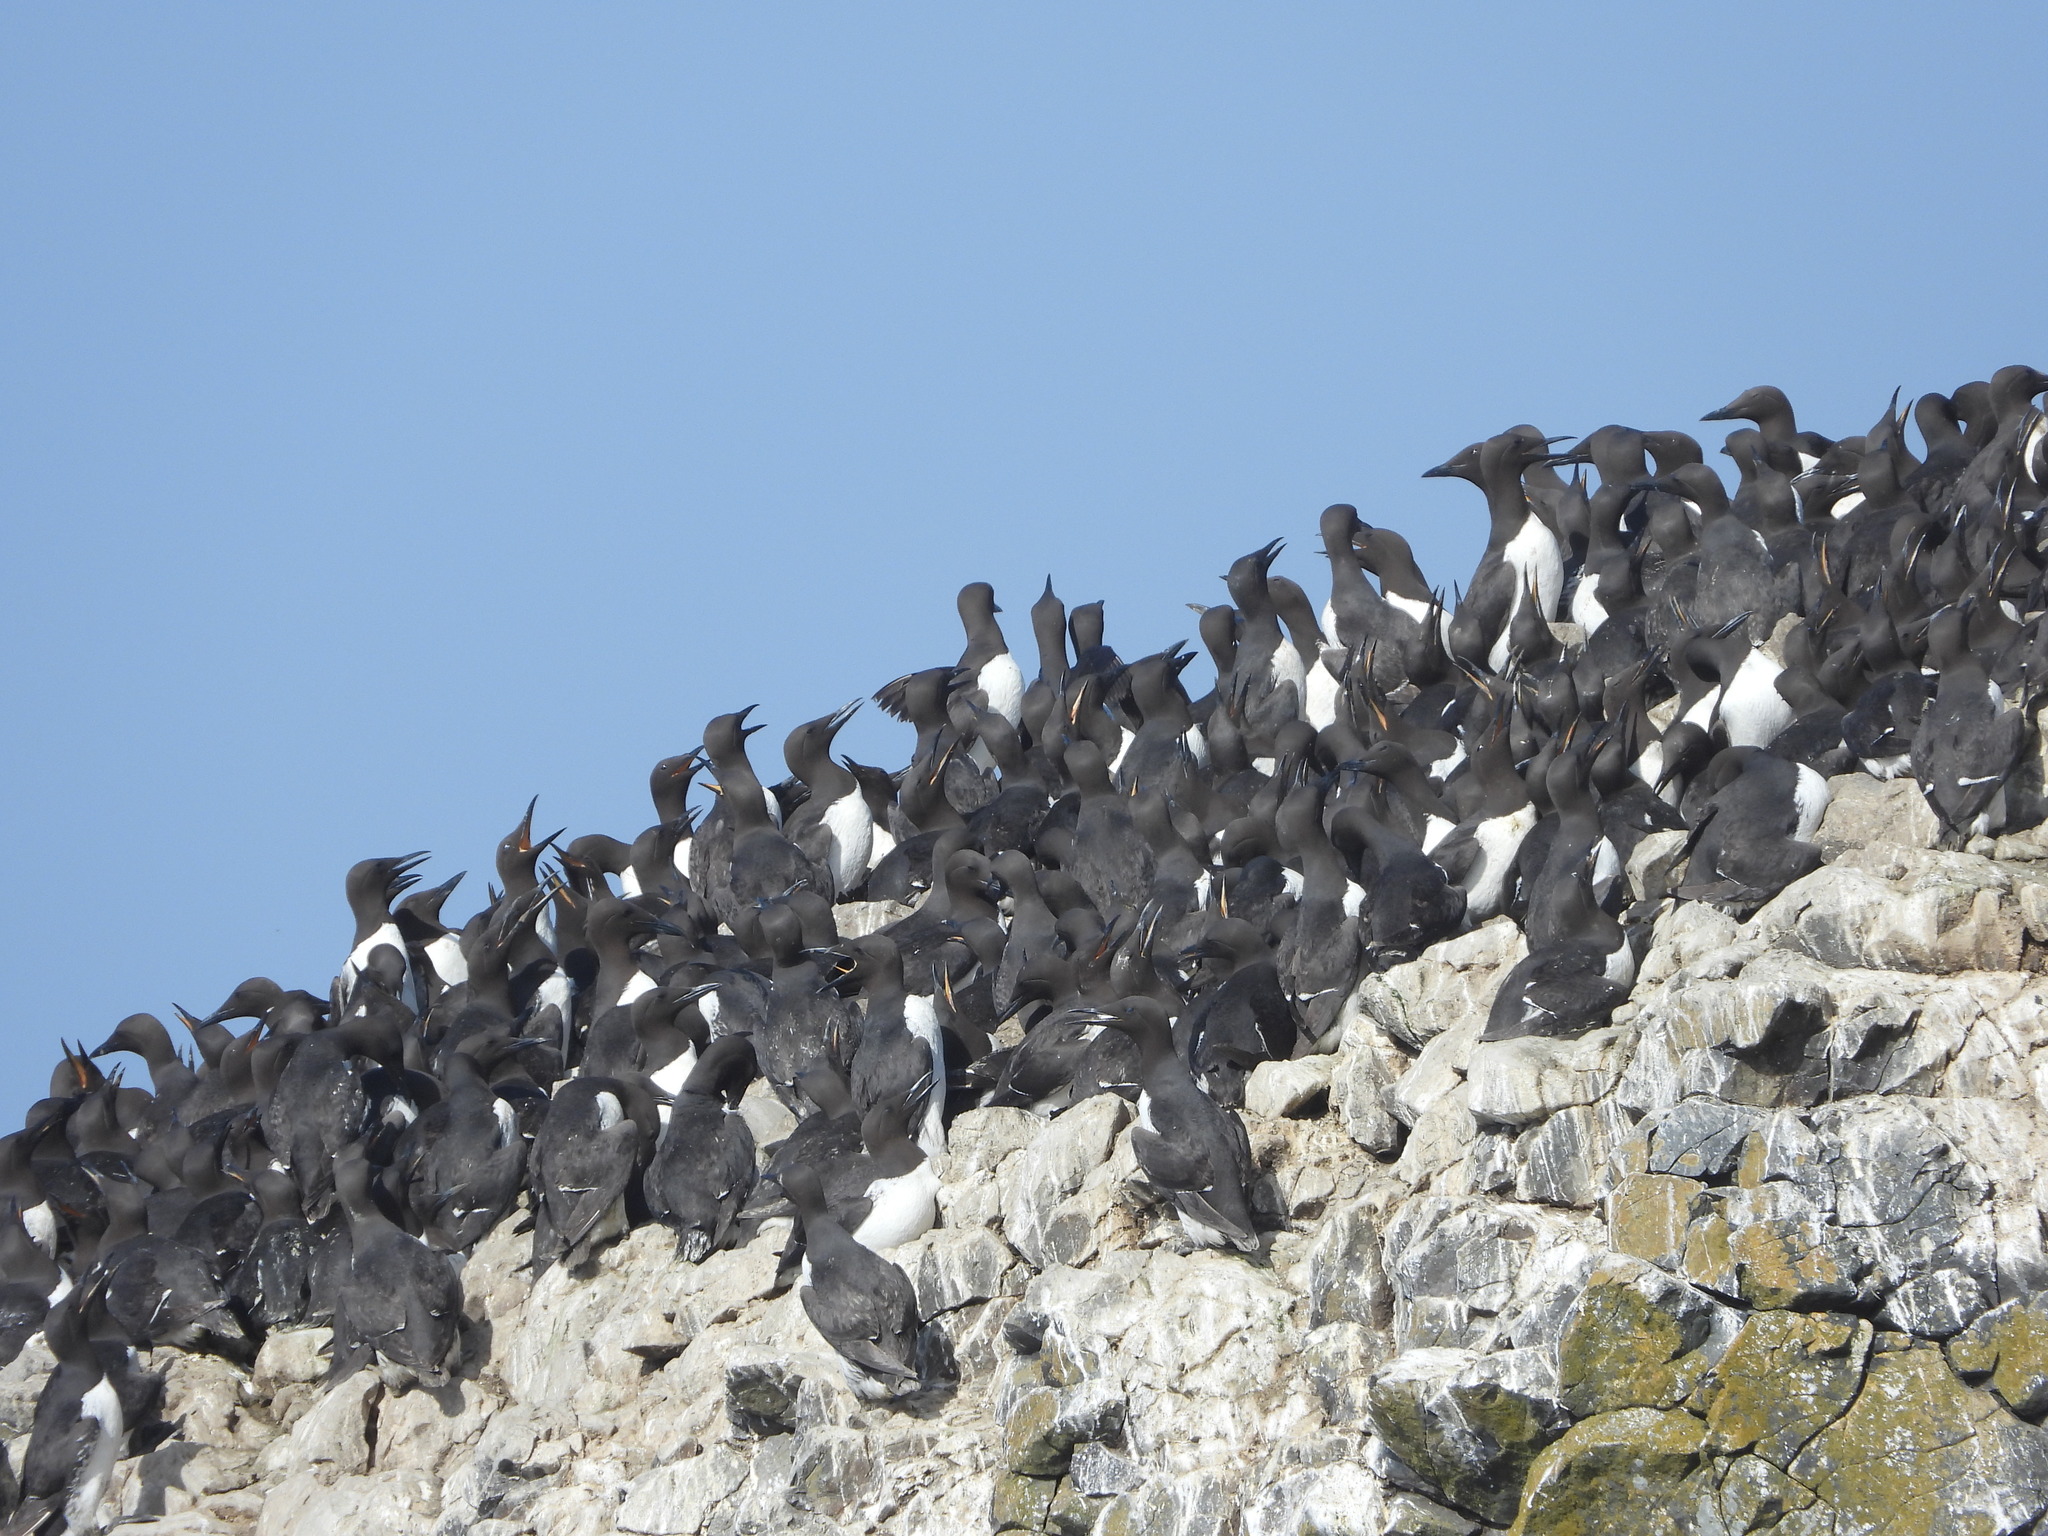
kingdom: Animalia
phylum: Chordata
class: Aves
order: Charadriiformes
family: Alcidae
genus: Uria
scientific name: Uria aalge
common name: Common murre
